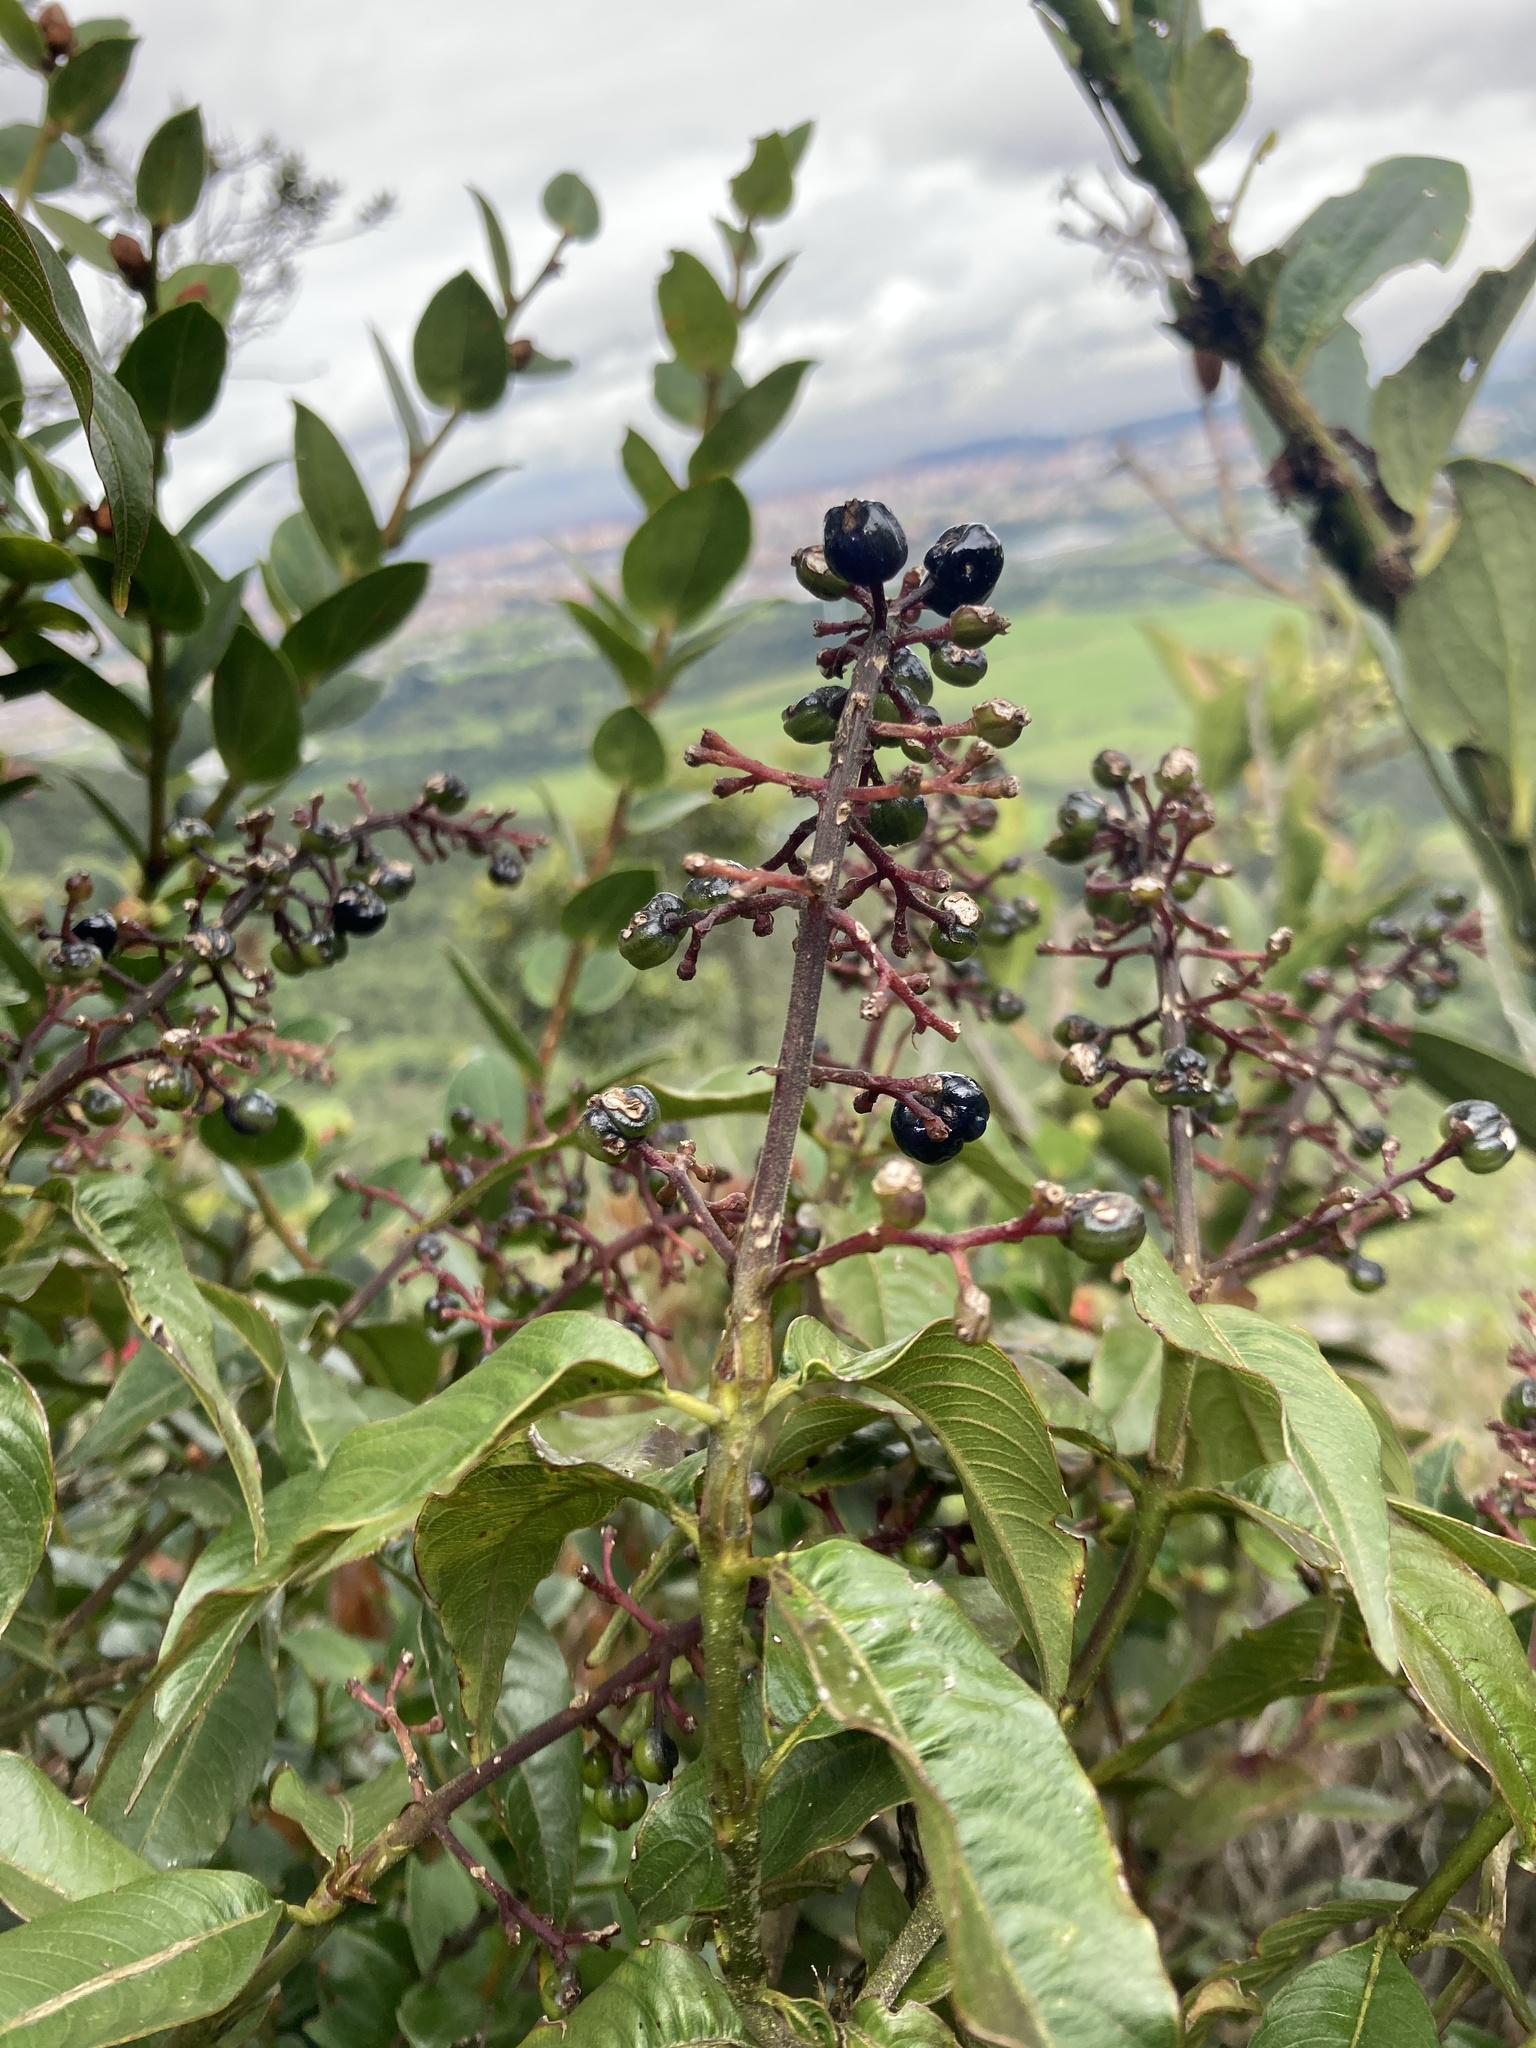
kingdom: Plantae
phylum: Tracheophyta
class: Magnoliopsida
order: Gentianales
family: Rubiaceae
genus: Palicourea
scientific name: Palicourea angustifolia
